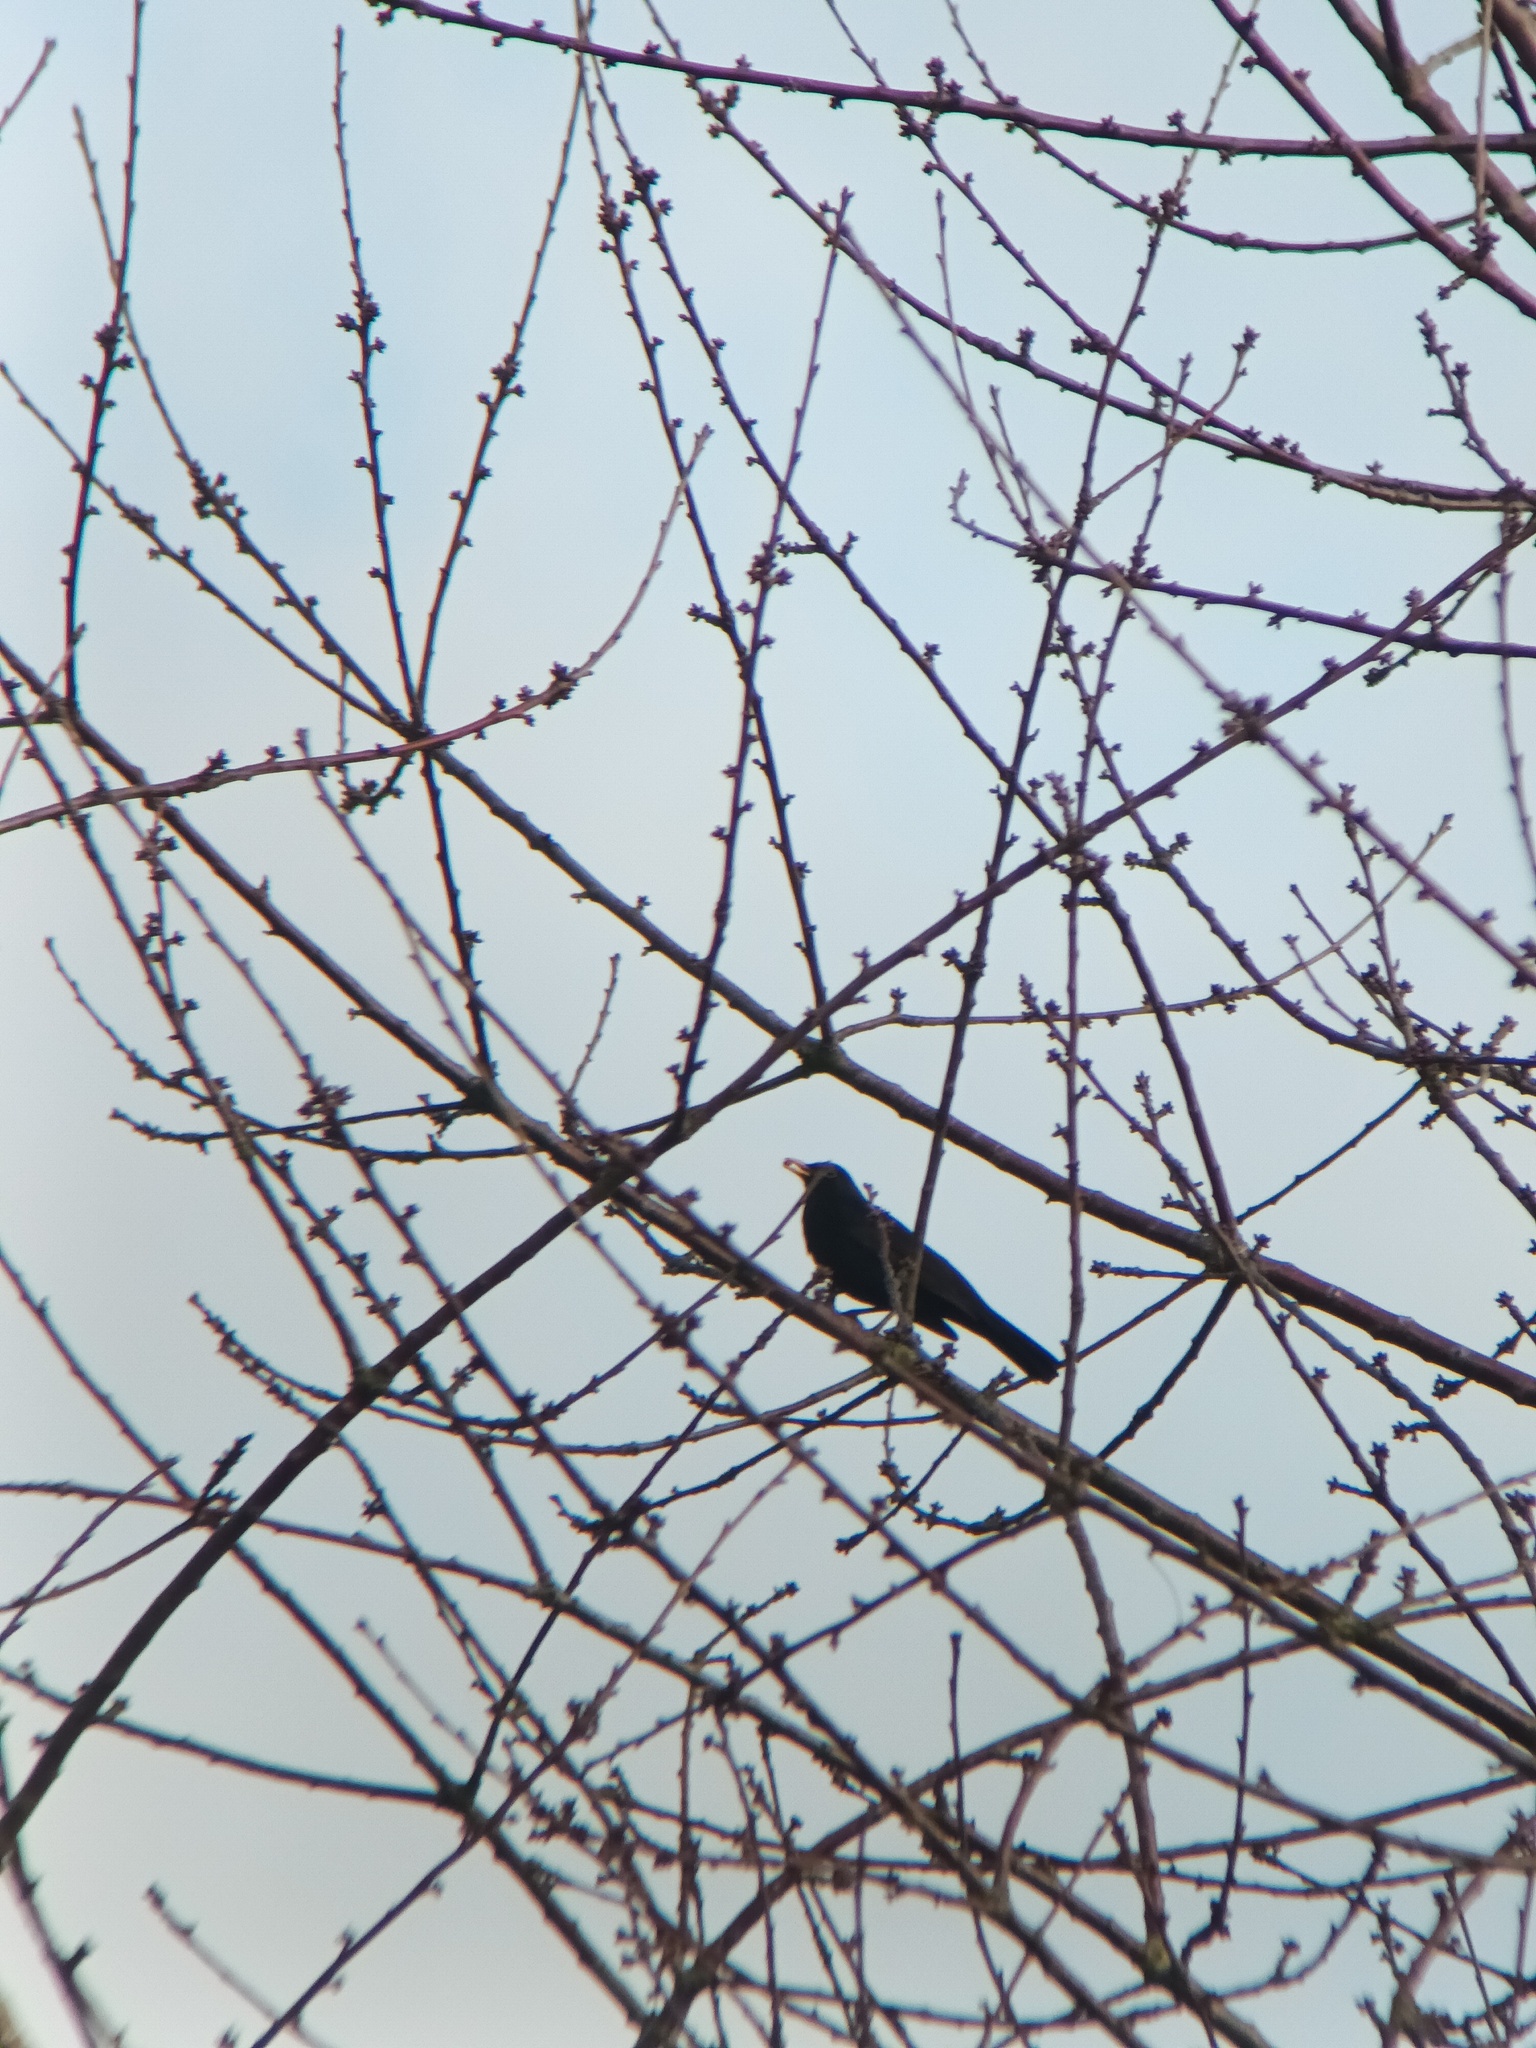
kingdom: Animalia
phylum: Chordata
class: Aves
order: Passeriformes
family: Turdidae
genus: Turdus
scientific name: Turdus merula
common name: Common blackbird
